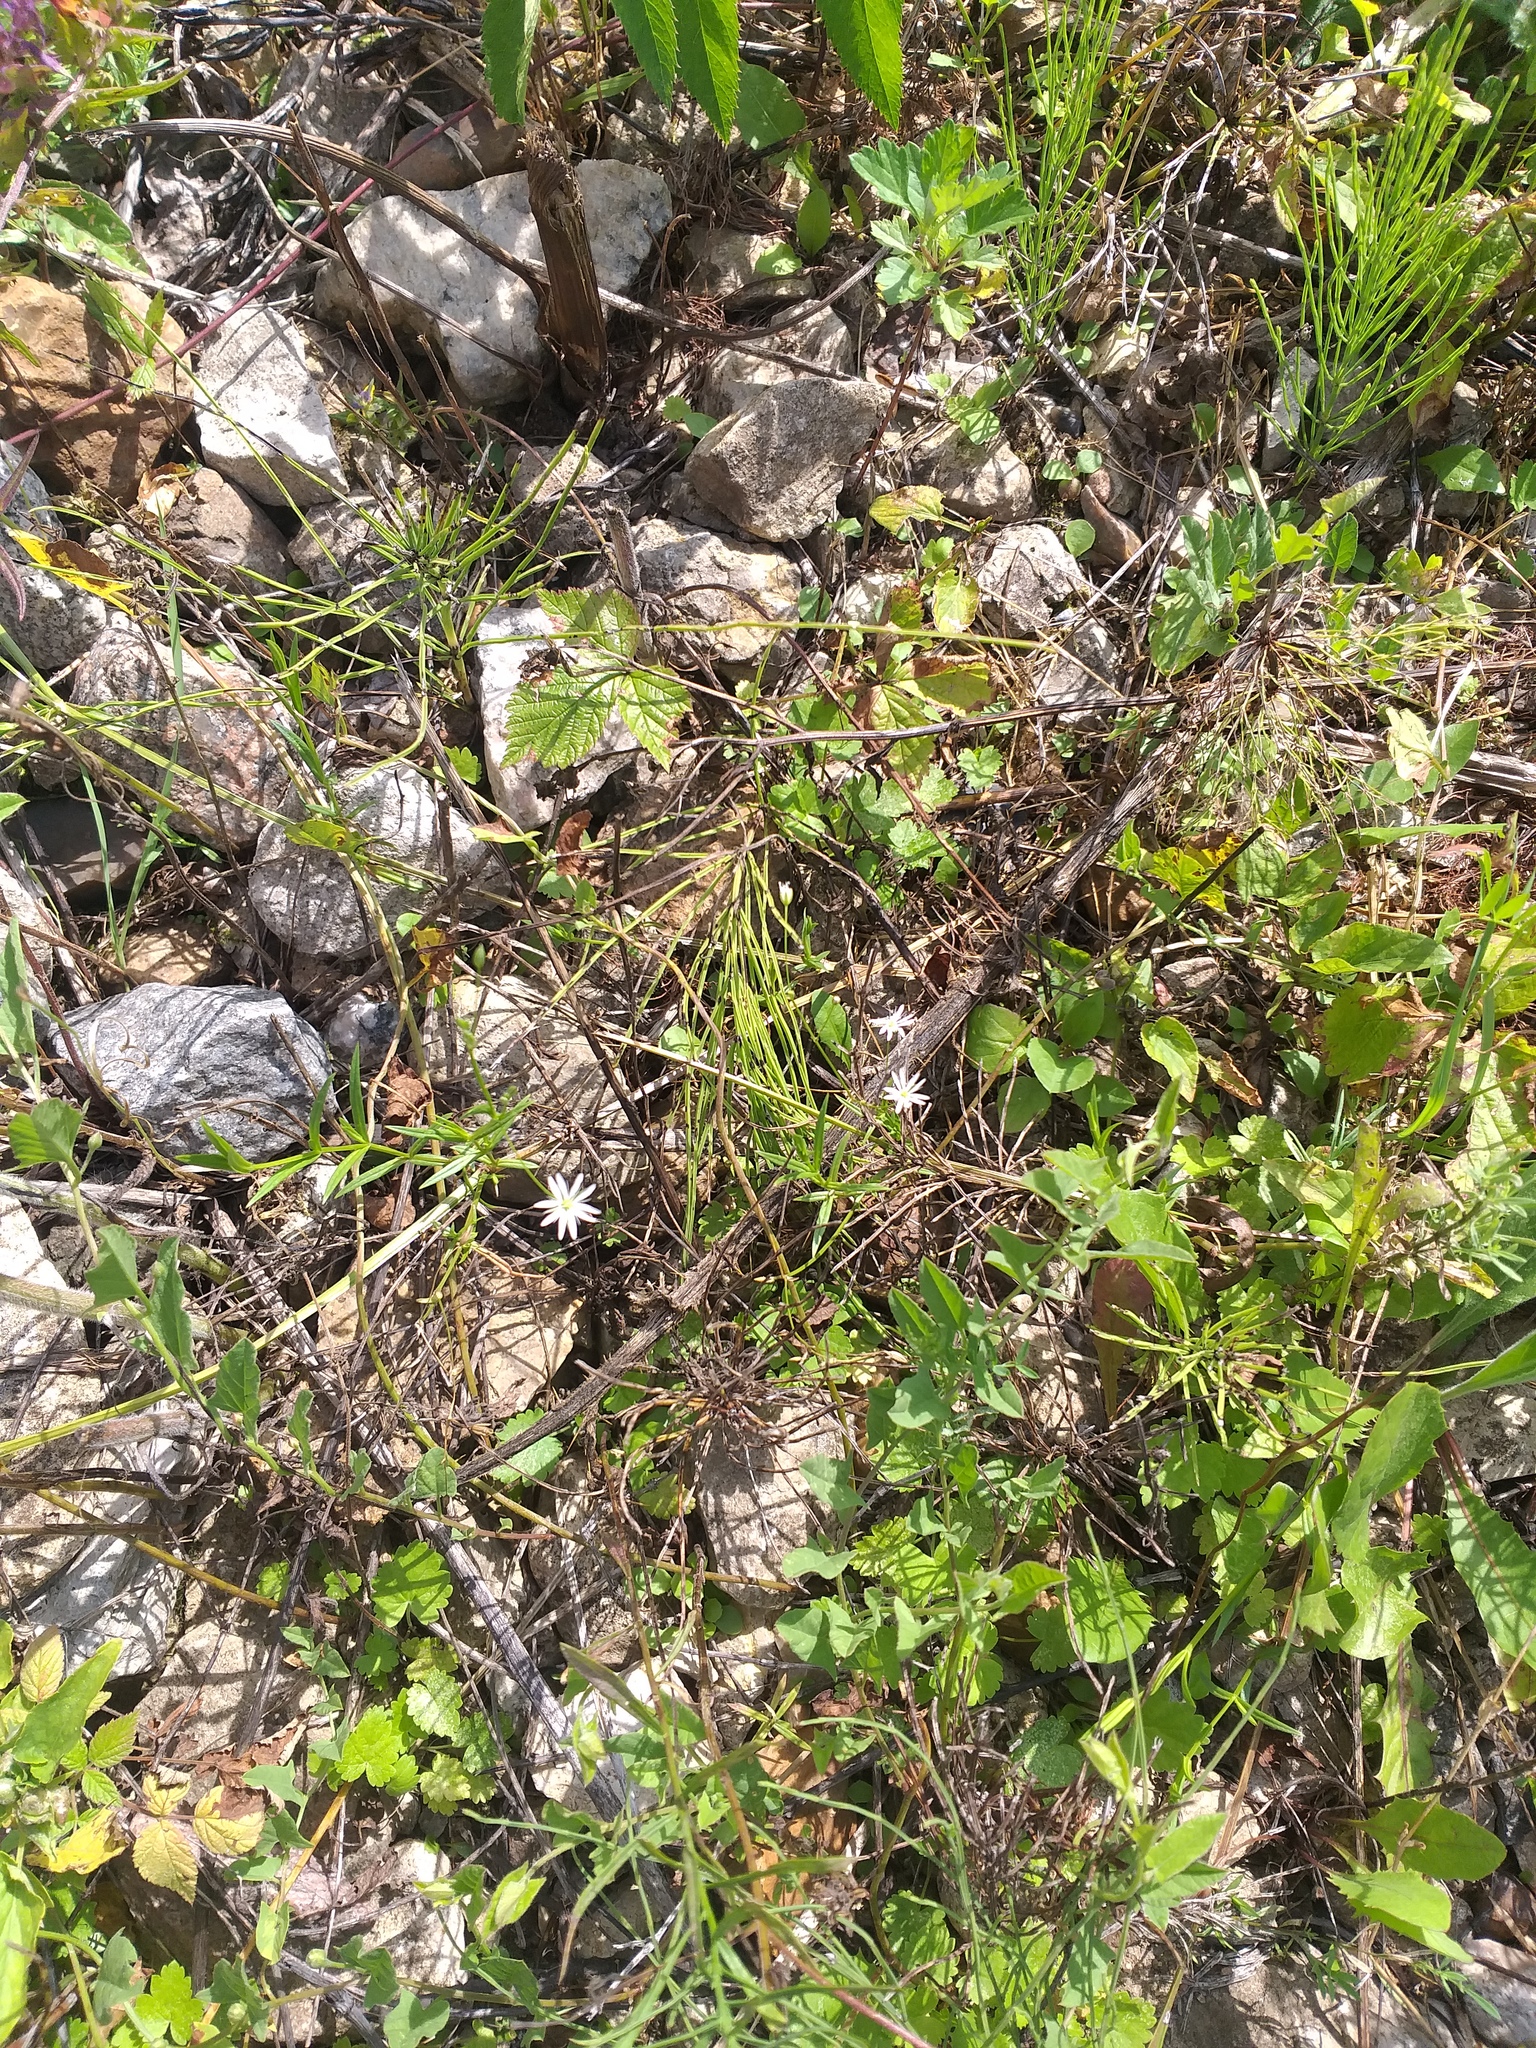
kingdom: Plantae
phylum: Tracheophyta
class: Magnoliopsida
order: Caryophyllales
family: Caryophyllaceae
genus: Stellaria
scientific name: Stellaria graminea
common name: Grass-like starwort
